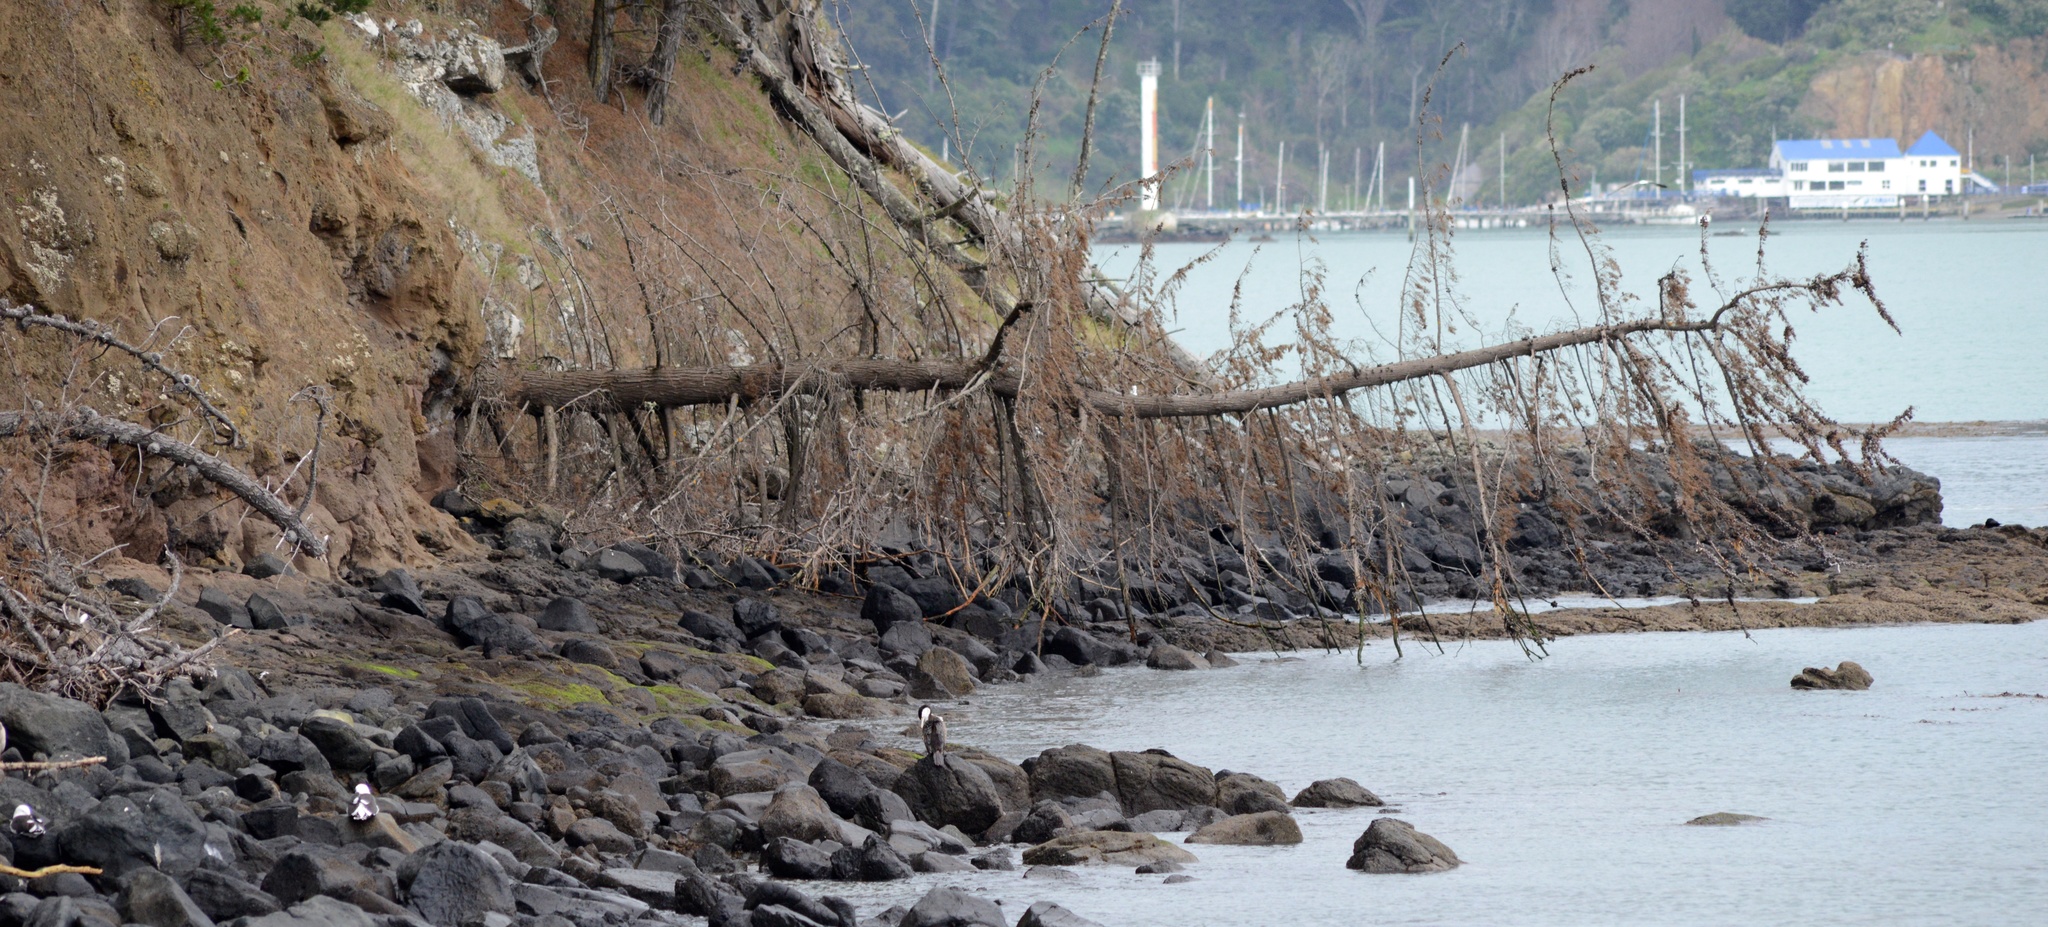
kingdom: Animalia
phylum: Chordata
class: Aves
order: Suliformes
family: Phalacrocoracidae
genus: Phalacrocorax
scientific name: Phalacrocorax varius
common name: Pied cormorant
